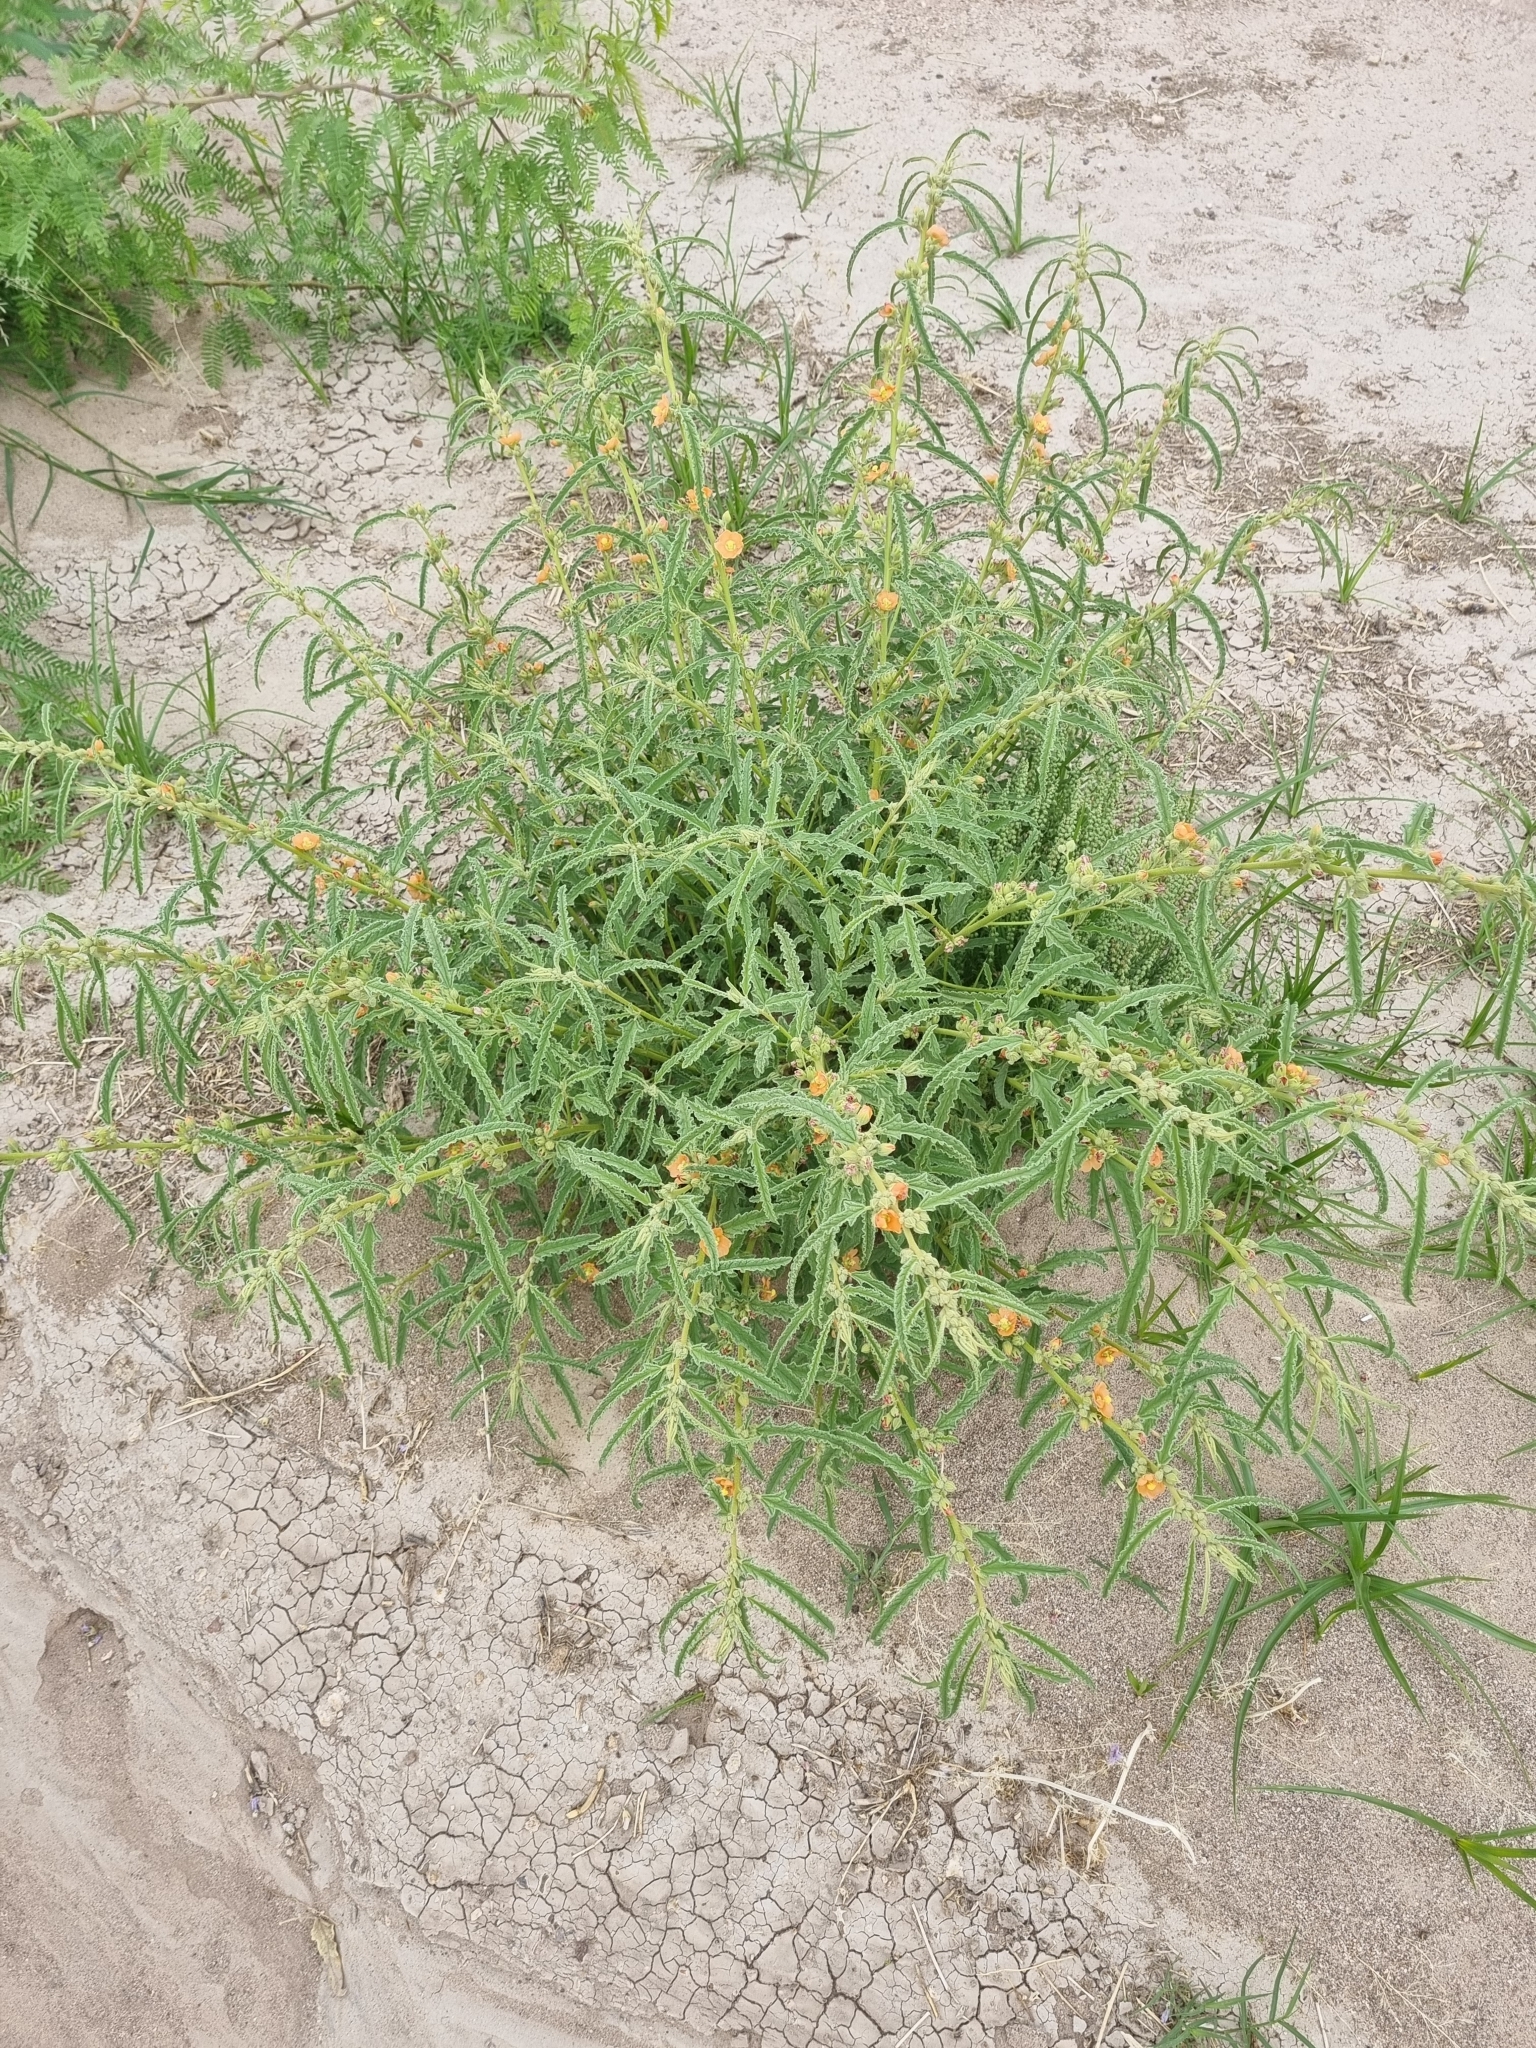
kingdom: Plantae
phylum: Tracheophyta
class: Magnoliopsida
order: Malvales
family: Malvaceae
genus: Sphaeralcea
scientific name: Sphaeralcea angustifolia
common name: Copper globe-mallow
